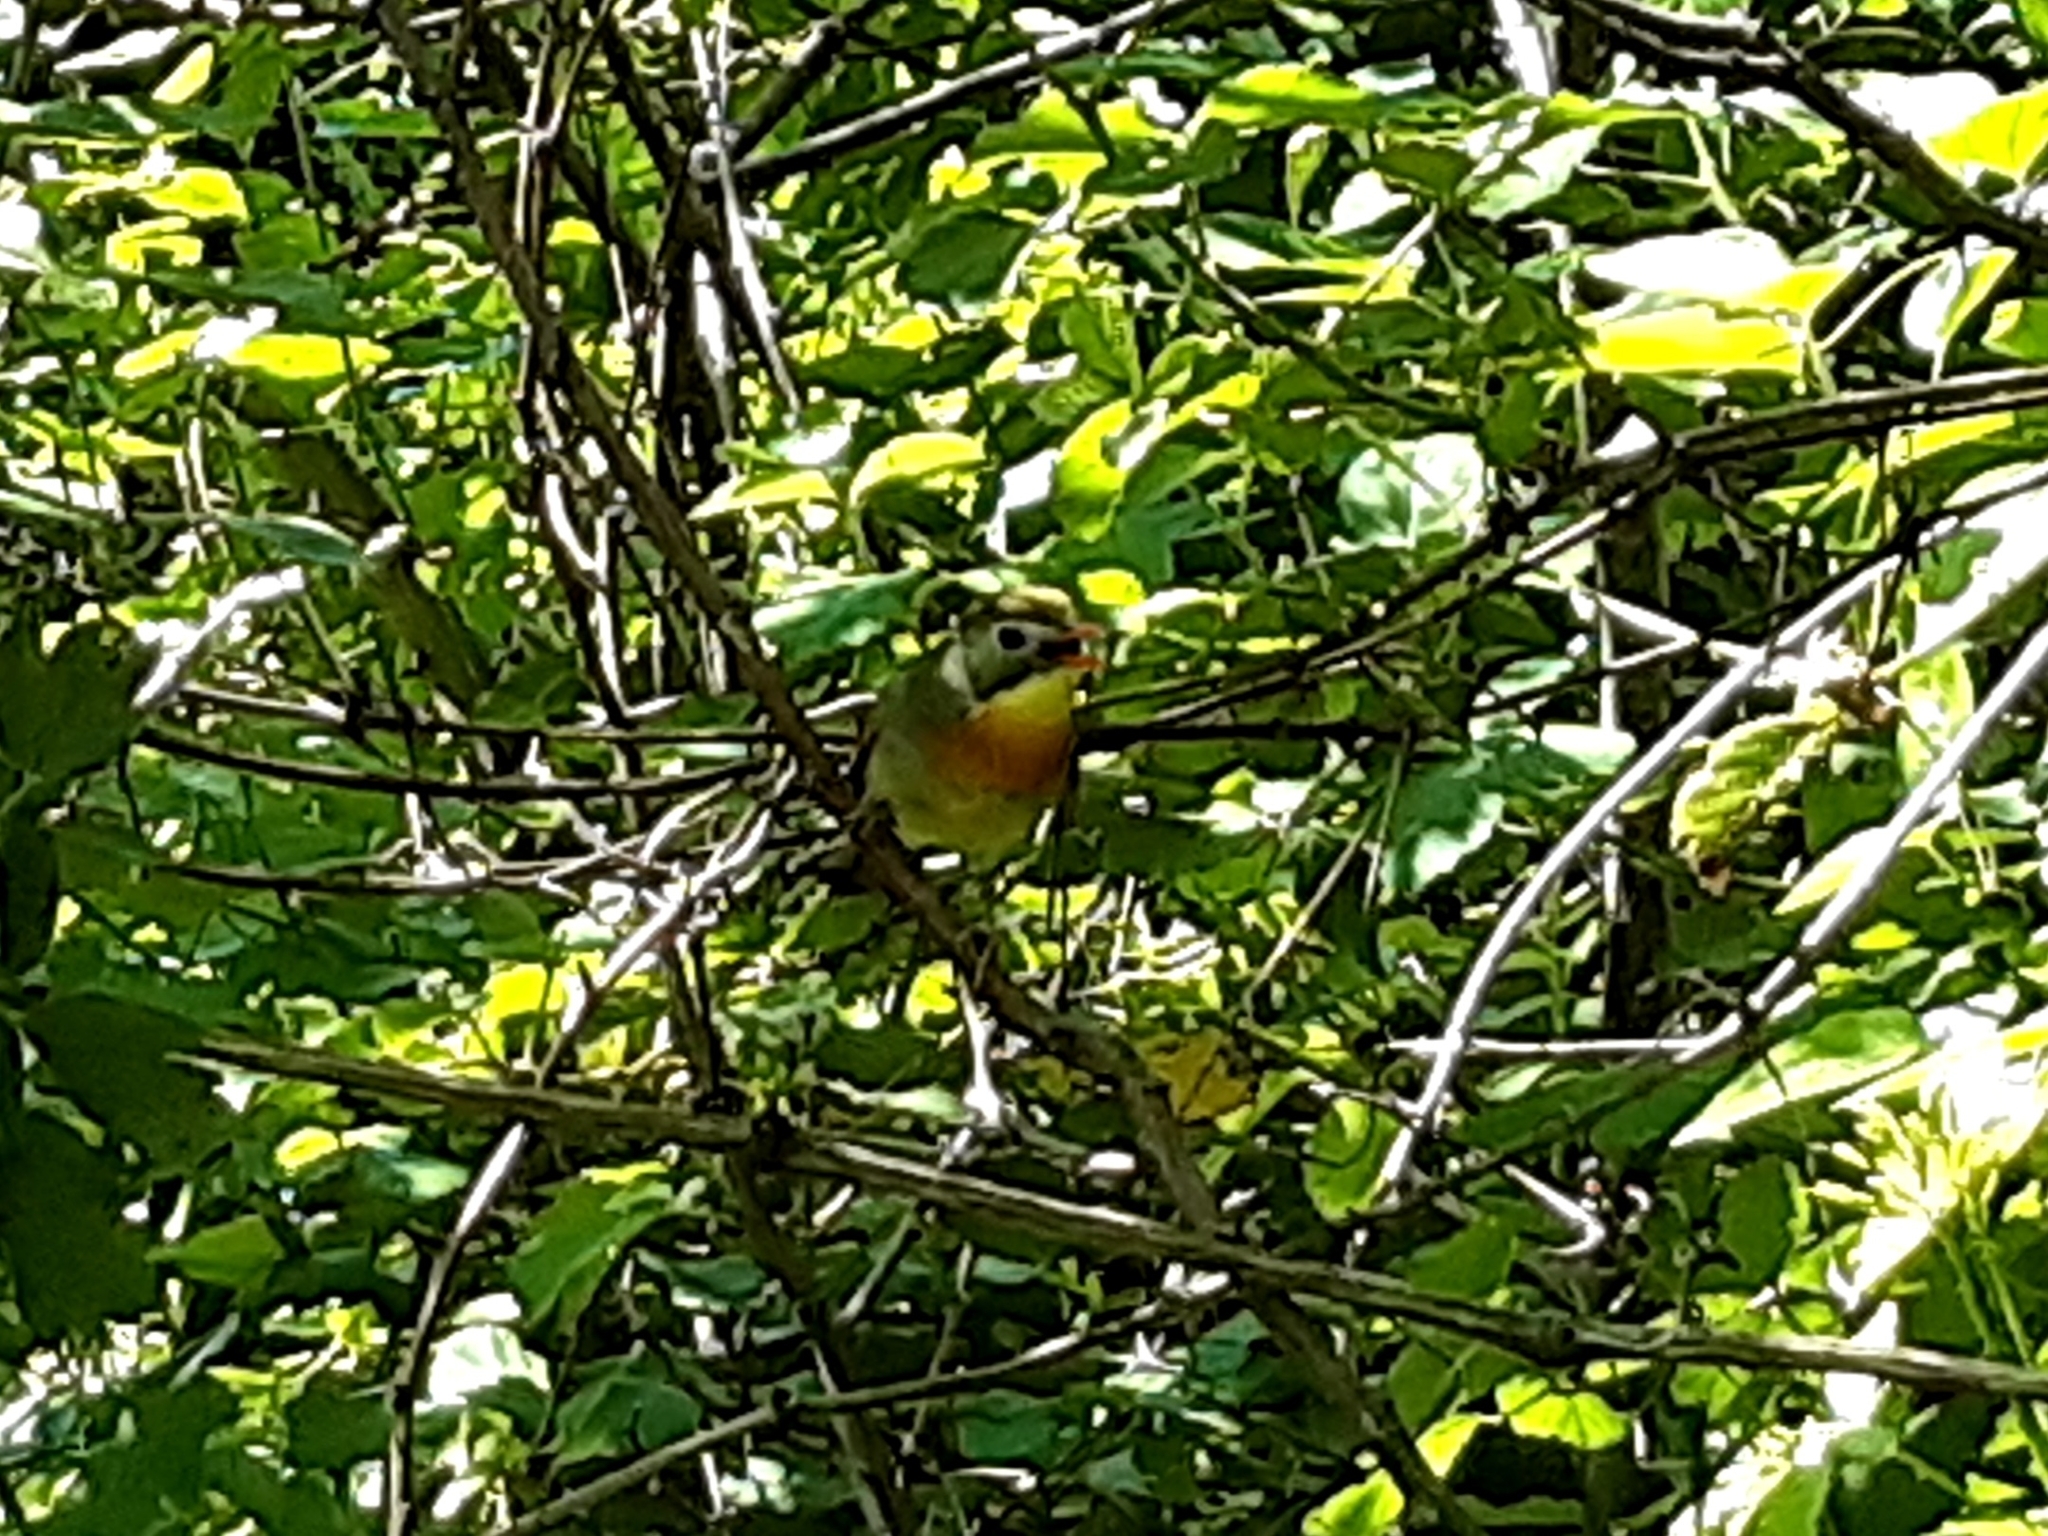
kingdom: Animalia
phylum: Chordata
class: Aves
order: Passeriformes
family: Leiothrichidae
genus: Leiothrix
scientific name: Leiothrix lutea
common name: Red-billed leiothrix
